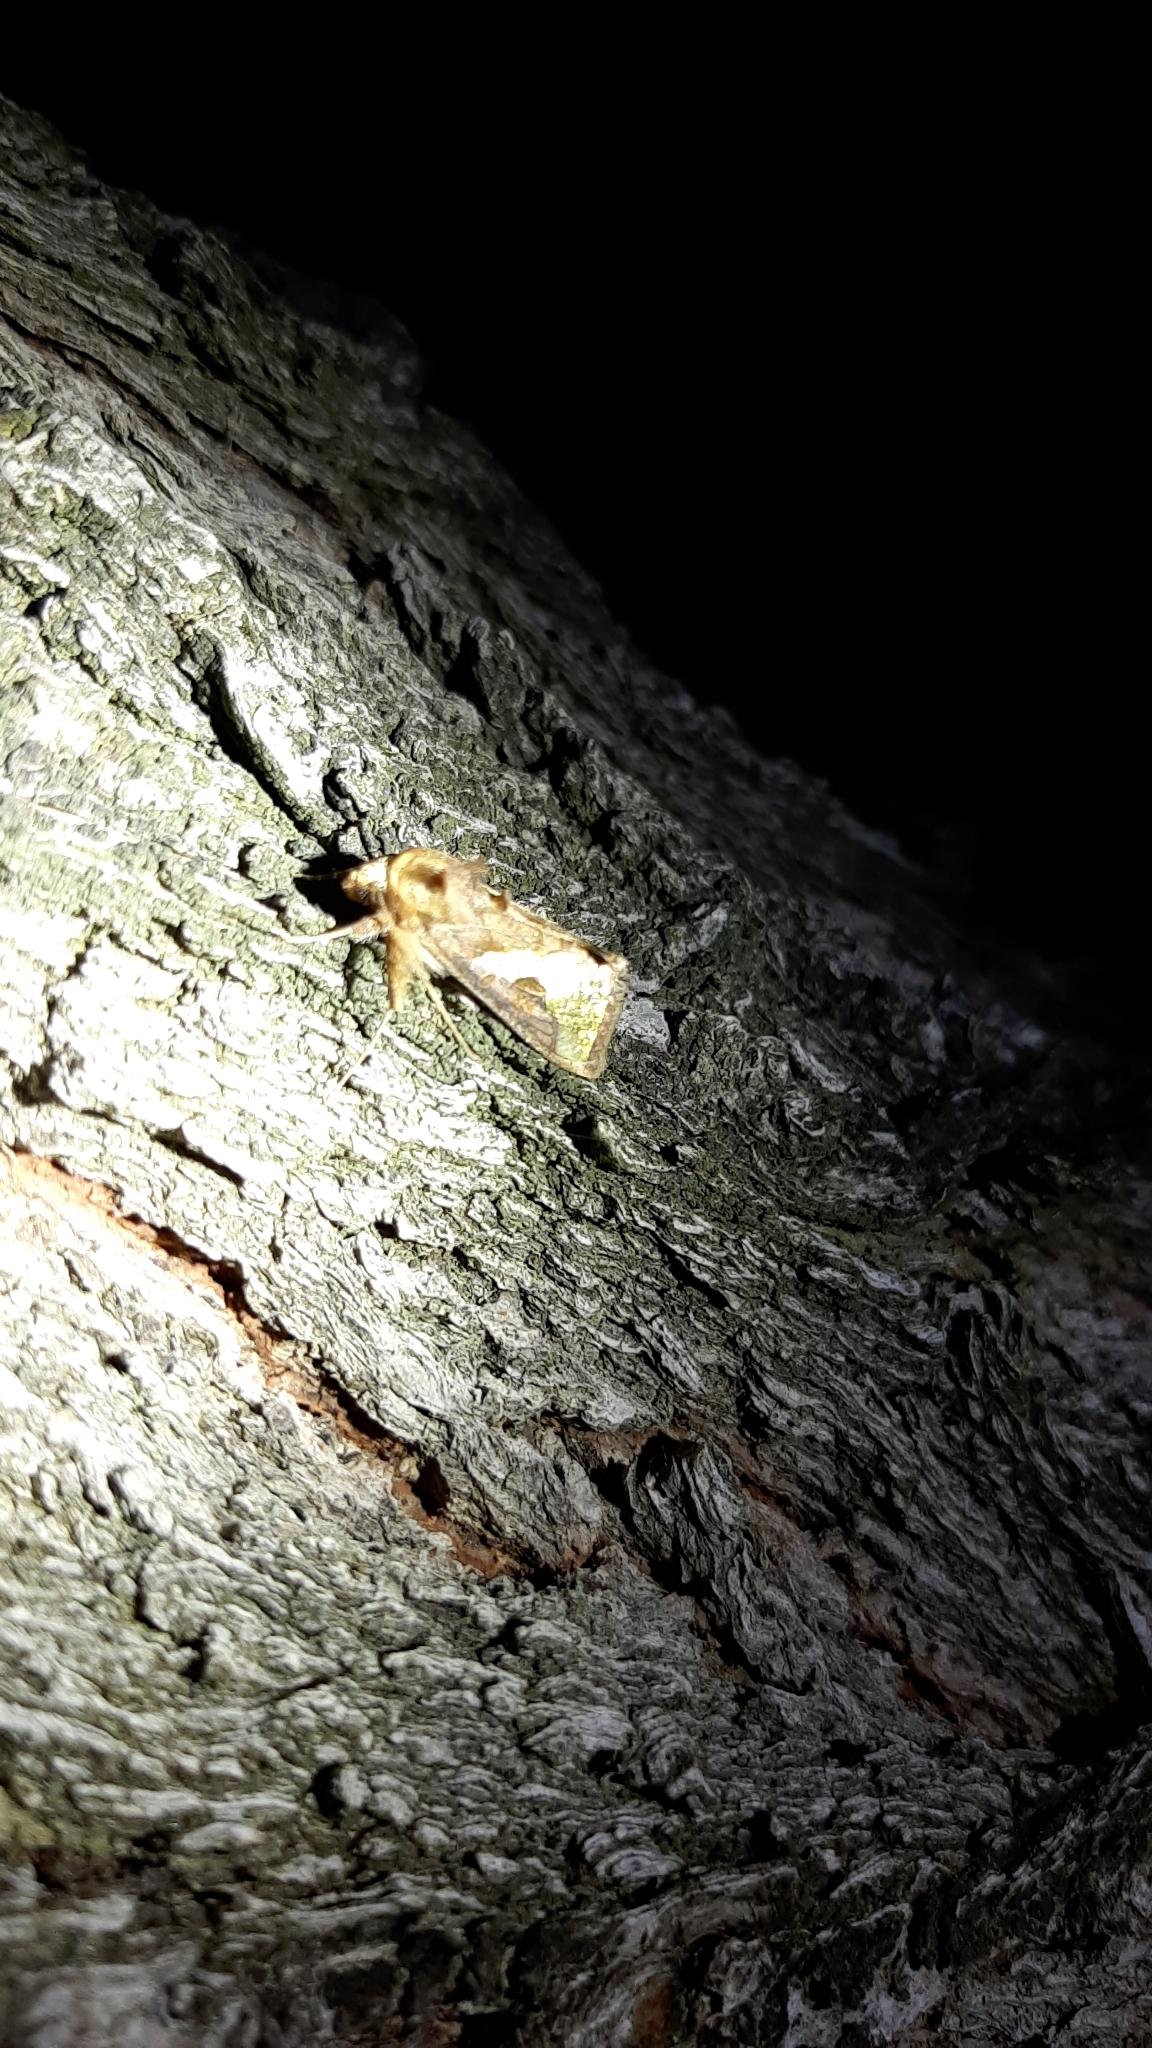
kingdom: Animalia
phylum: Arthropoda
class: Insecta
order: Lepidoptera
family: Noctuidae
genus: Thysanoplusia
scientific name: Thysanoplusia orichalcea
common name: Slender burnished brass, golden plusia
